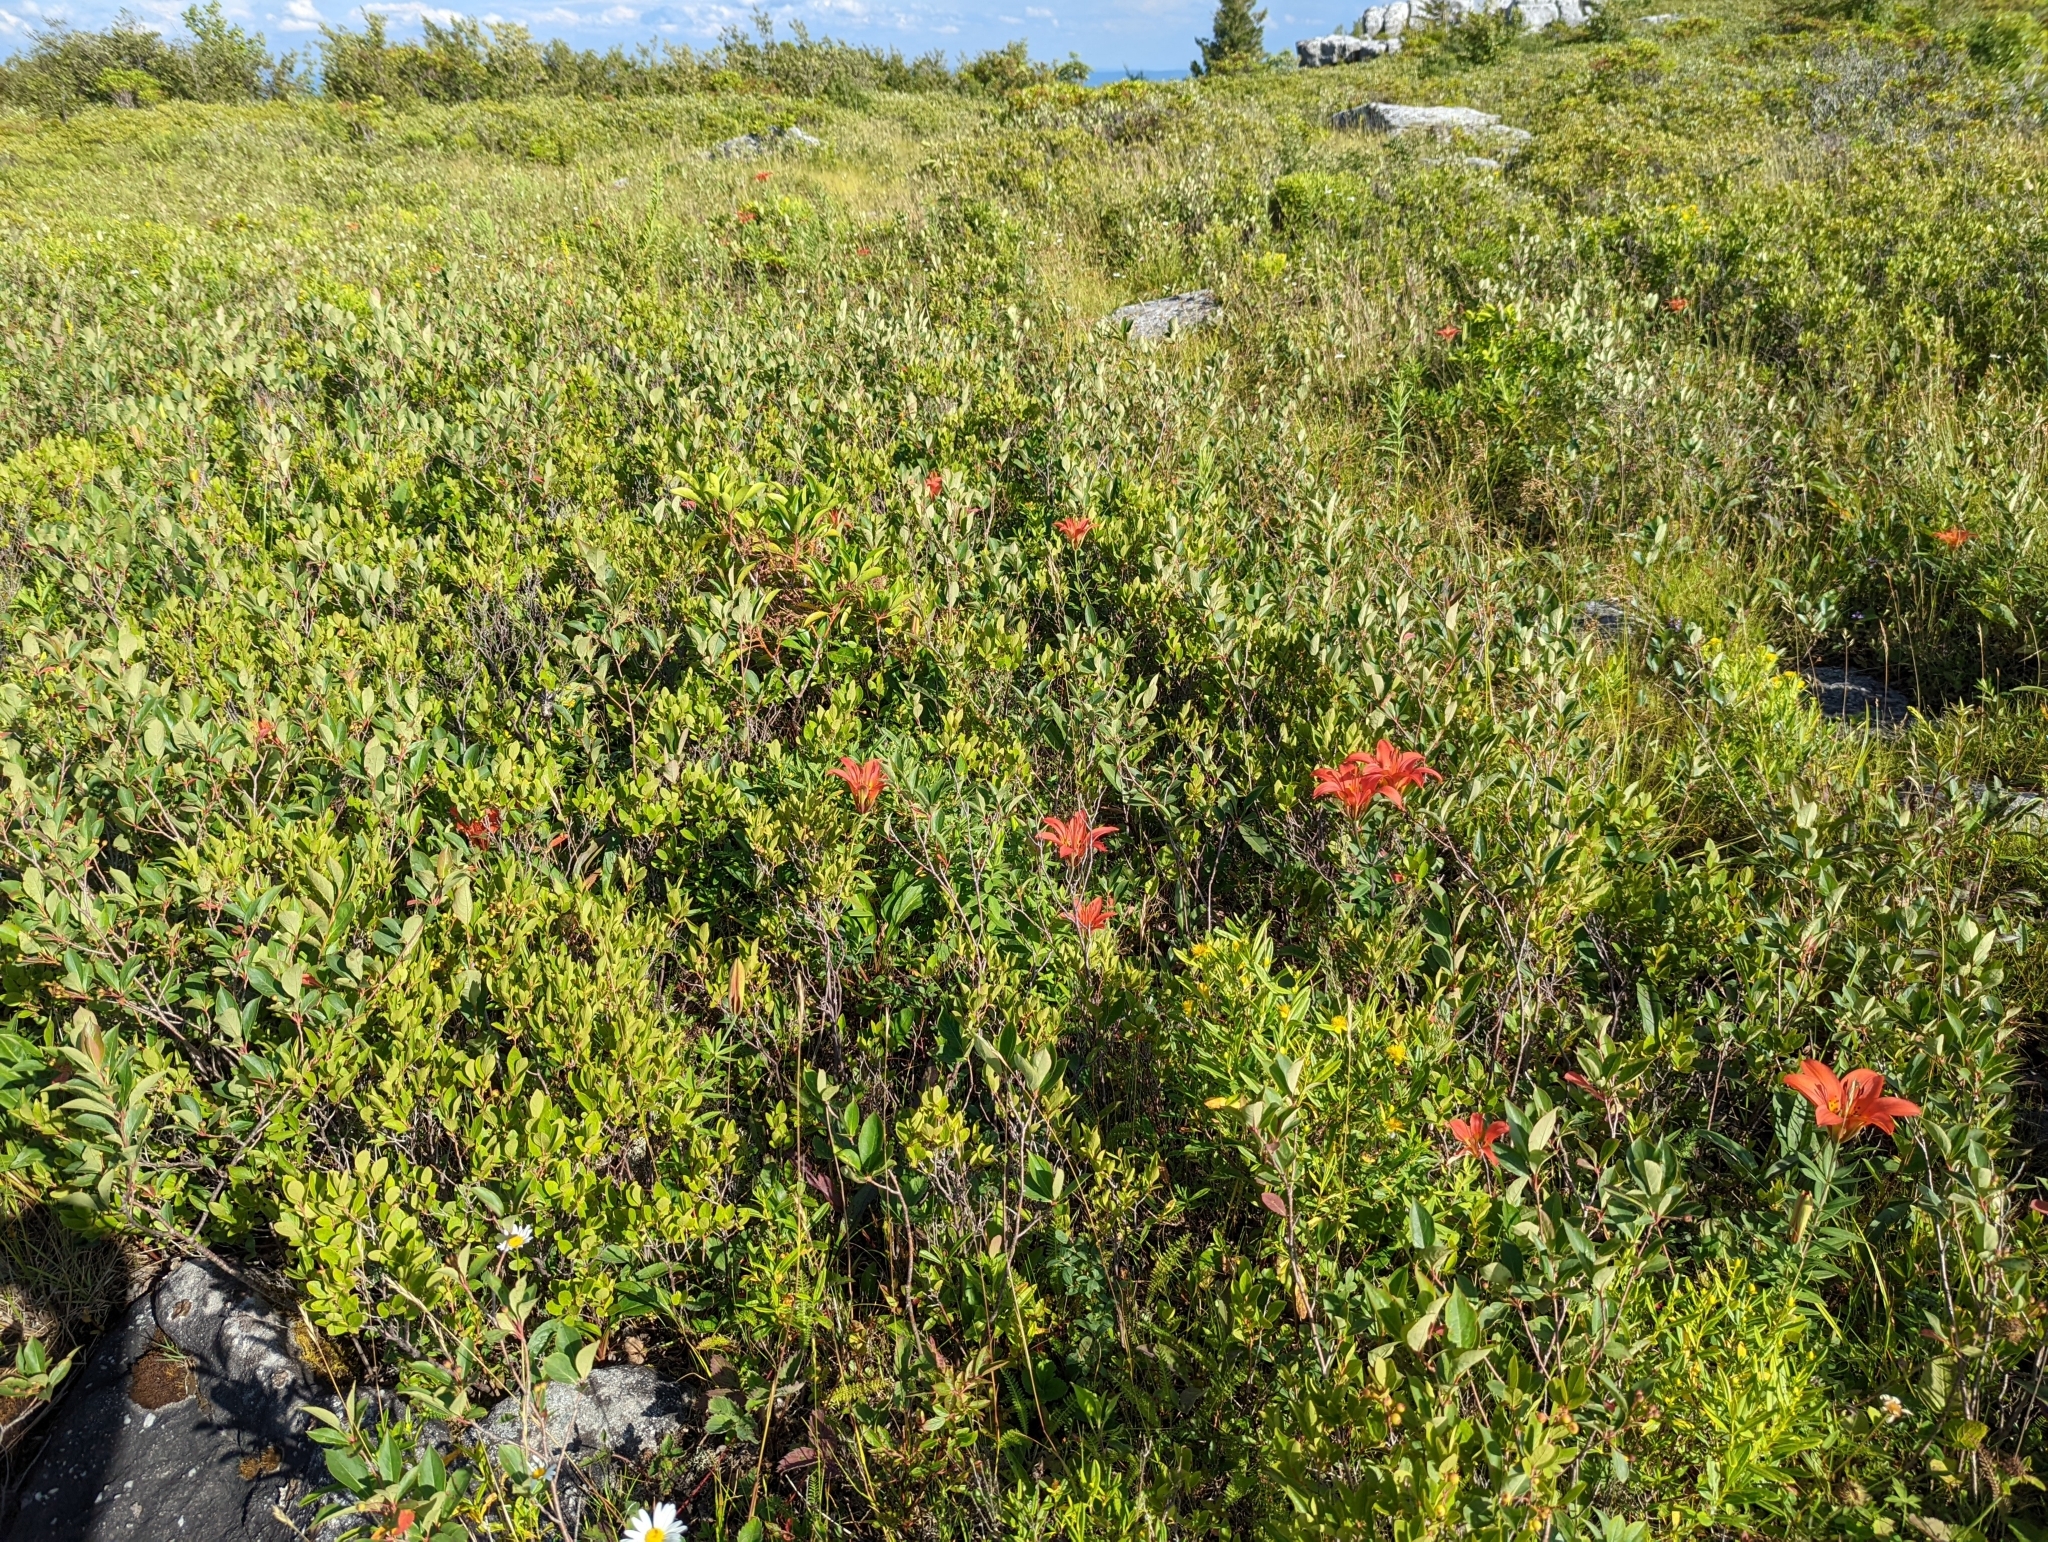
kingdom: Plantae
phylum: Tracheophyta
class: Liliopsida
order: Liliales
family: Liliaceae
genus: Lilium
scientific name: Lilium philadelphicum
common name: Red lily
